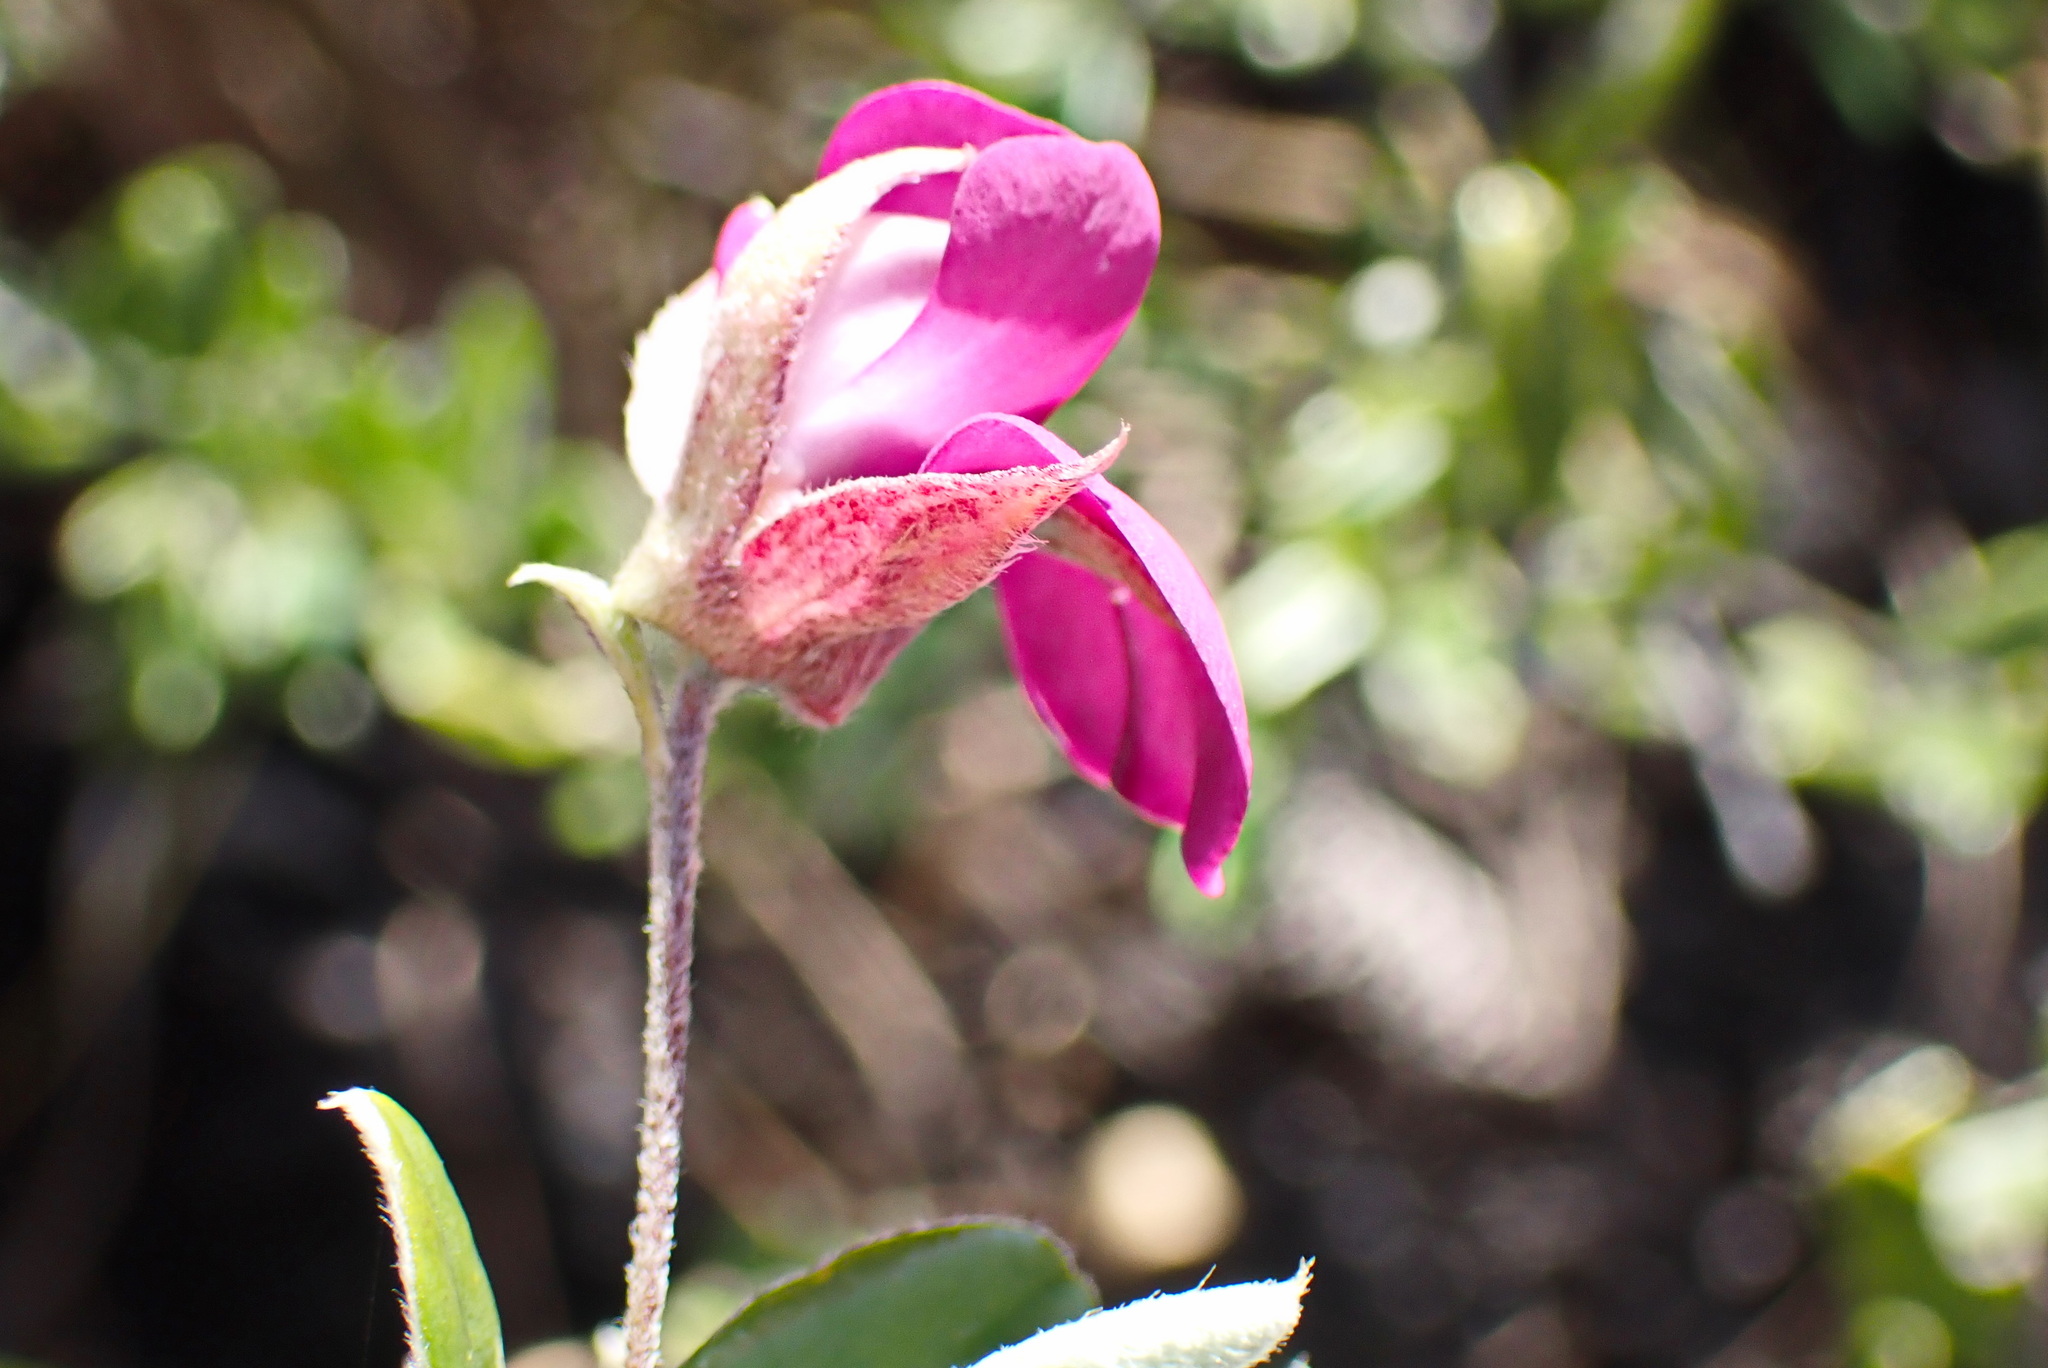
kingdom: Plantae
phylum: Tracheophyta
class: Magnoliopsida
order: Fabales
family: Fabaceae
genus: Podalyria
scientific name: Podalyria buxifolia
